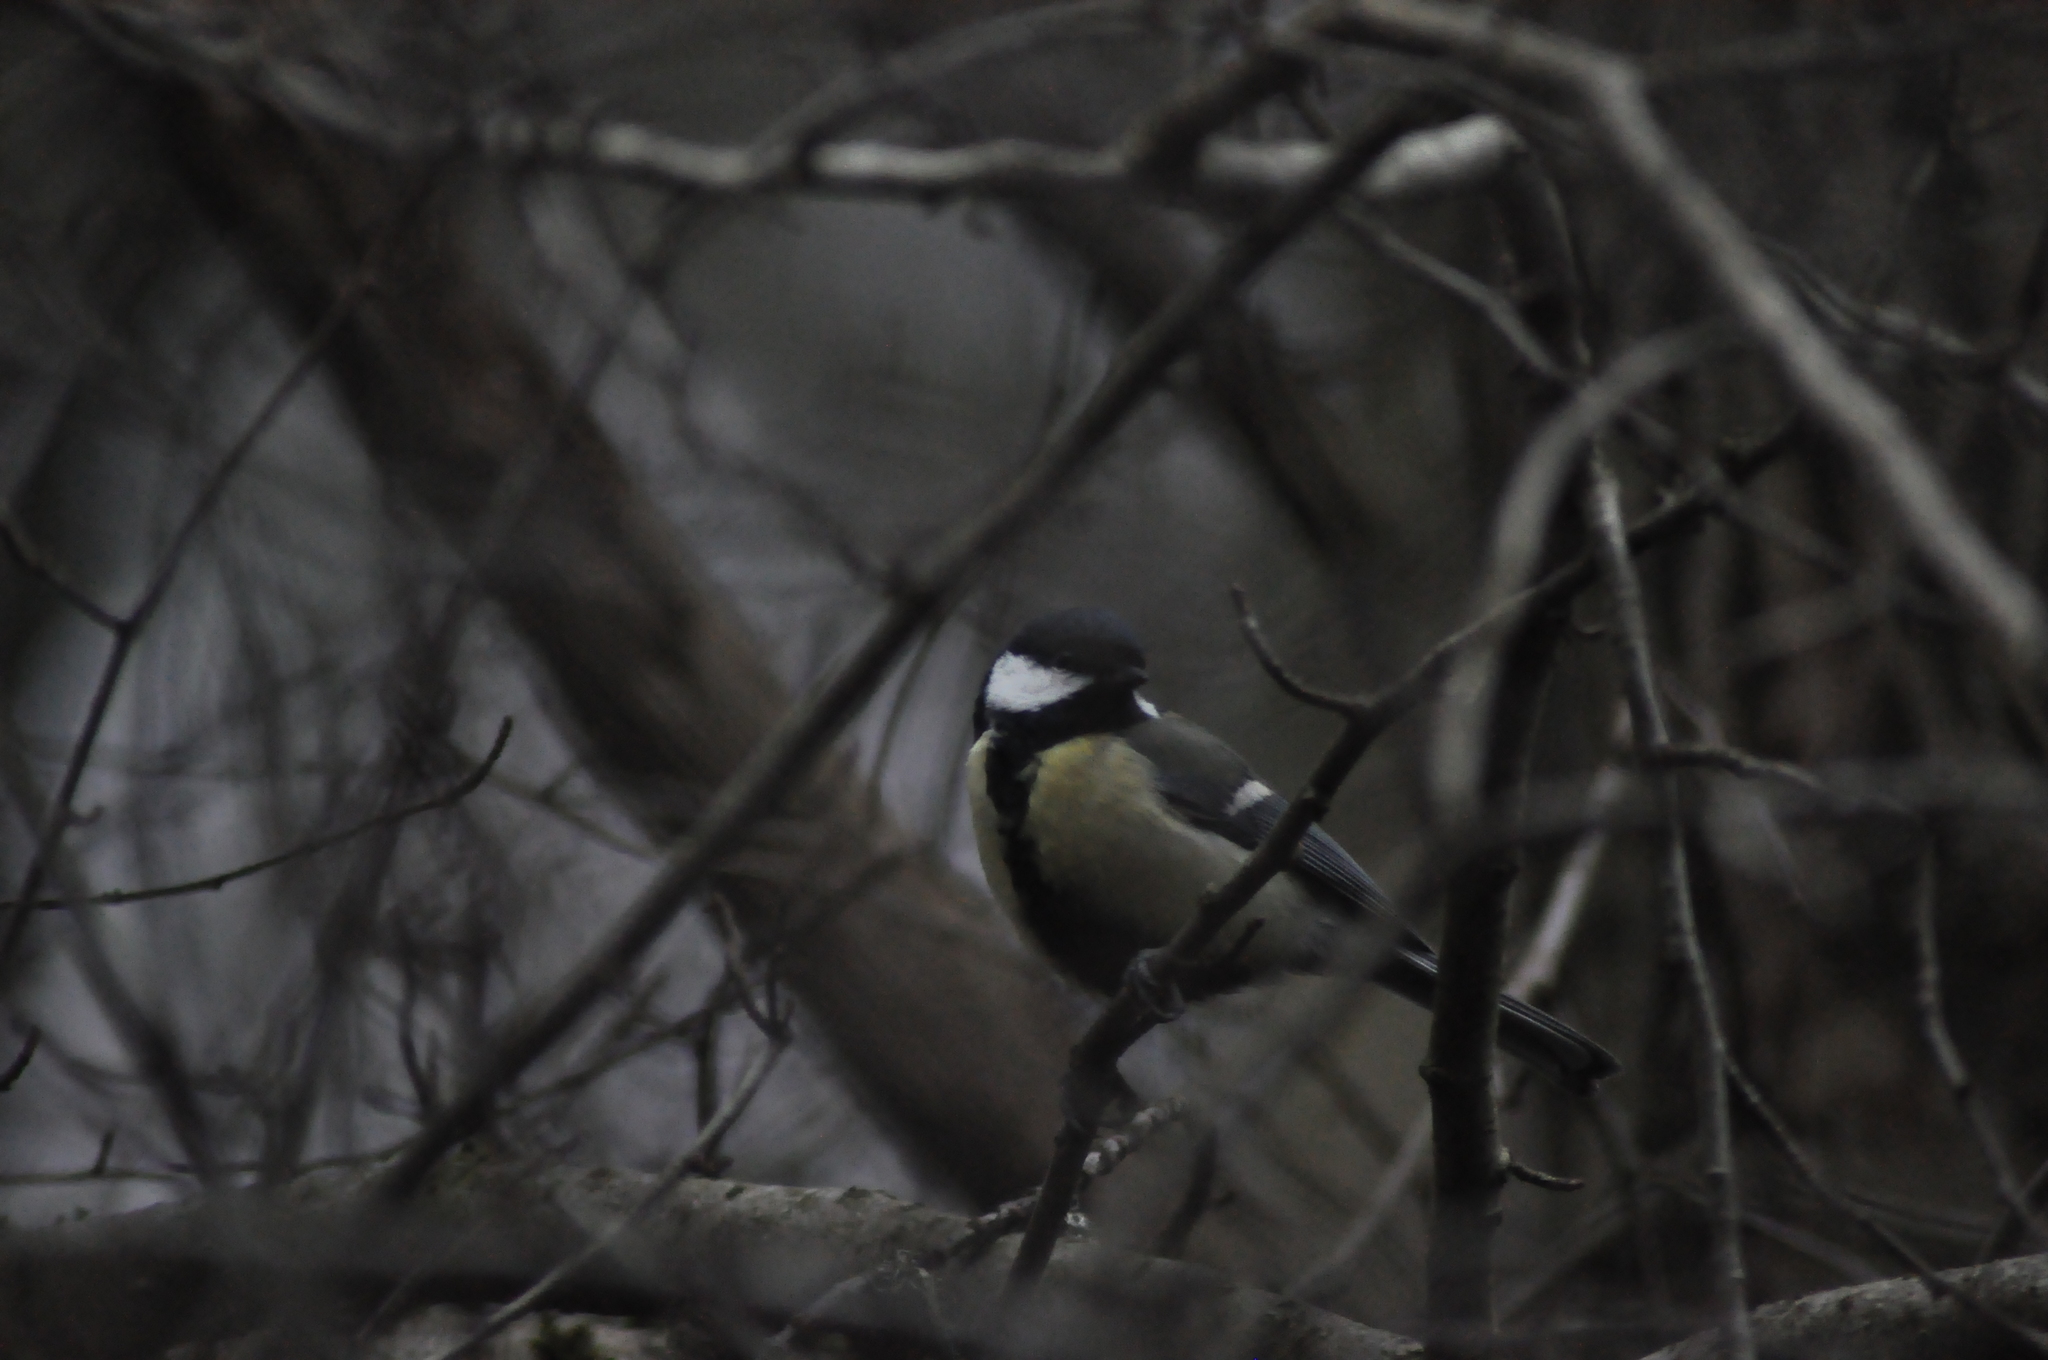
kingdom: Animalia
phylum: Chordata
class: Aves
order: Passeriformes
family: Paridae
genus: Parus
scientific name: Parus major
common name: Great tit
